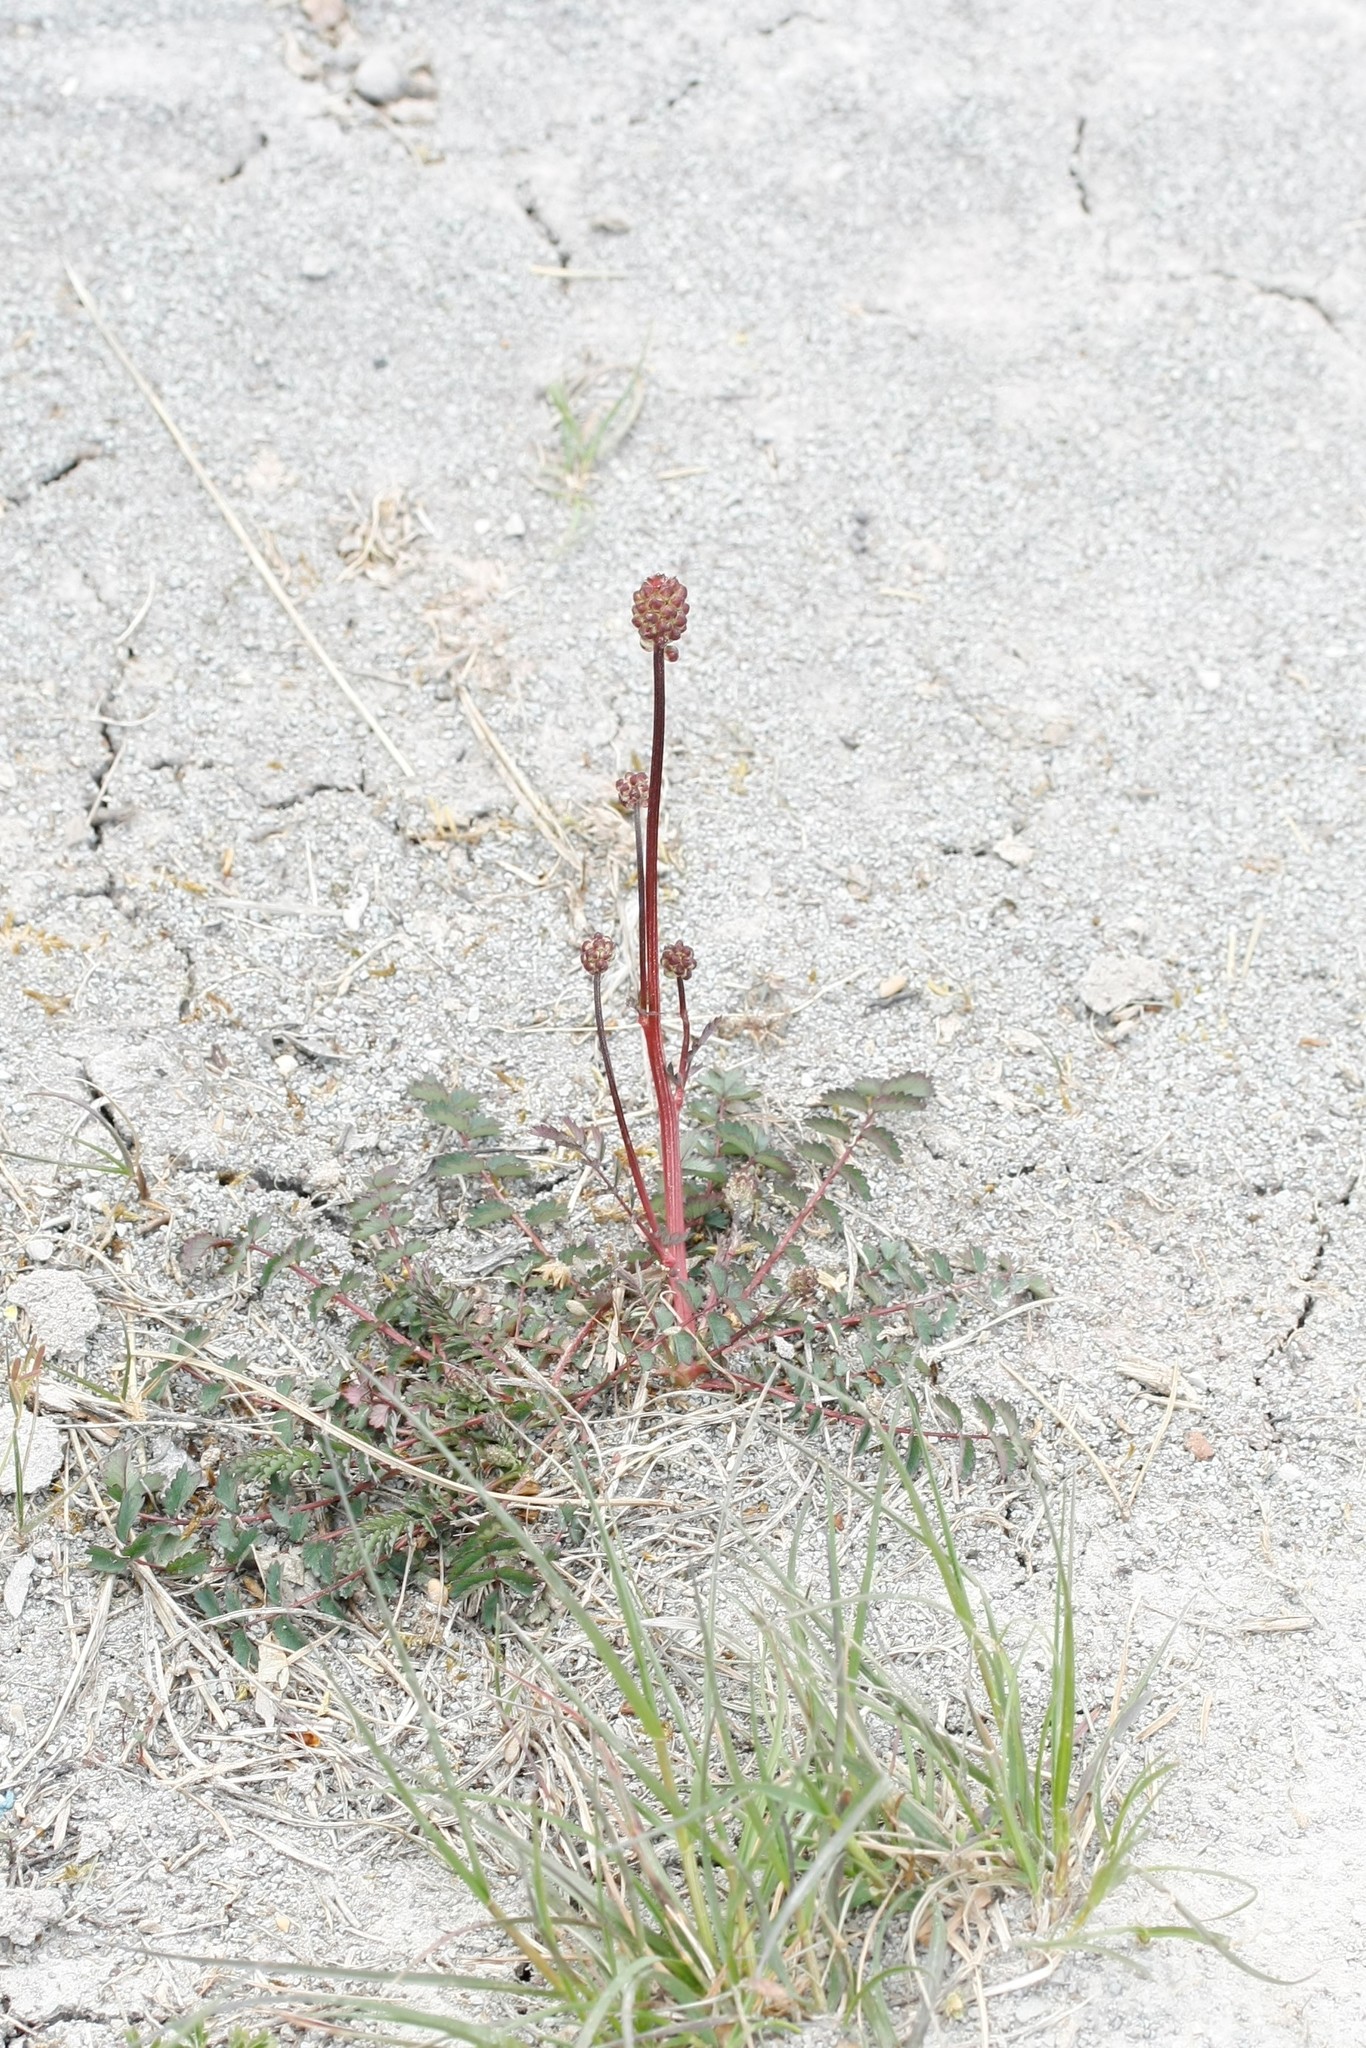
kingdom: Plantae
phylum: Tracheophyta
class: Magnoliopsida
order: Rosales
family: Rosaceae
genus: Poterium
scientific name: Poterium sanguisorba
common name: Salad burnet
